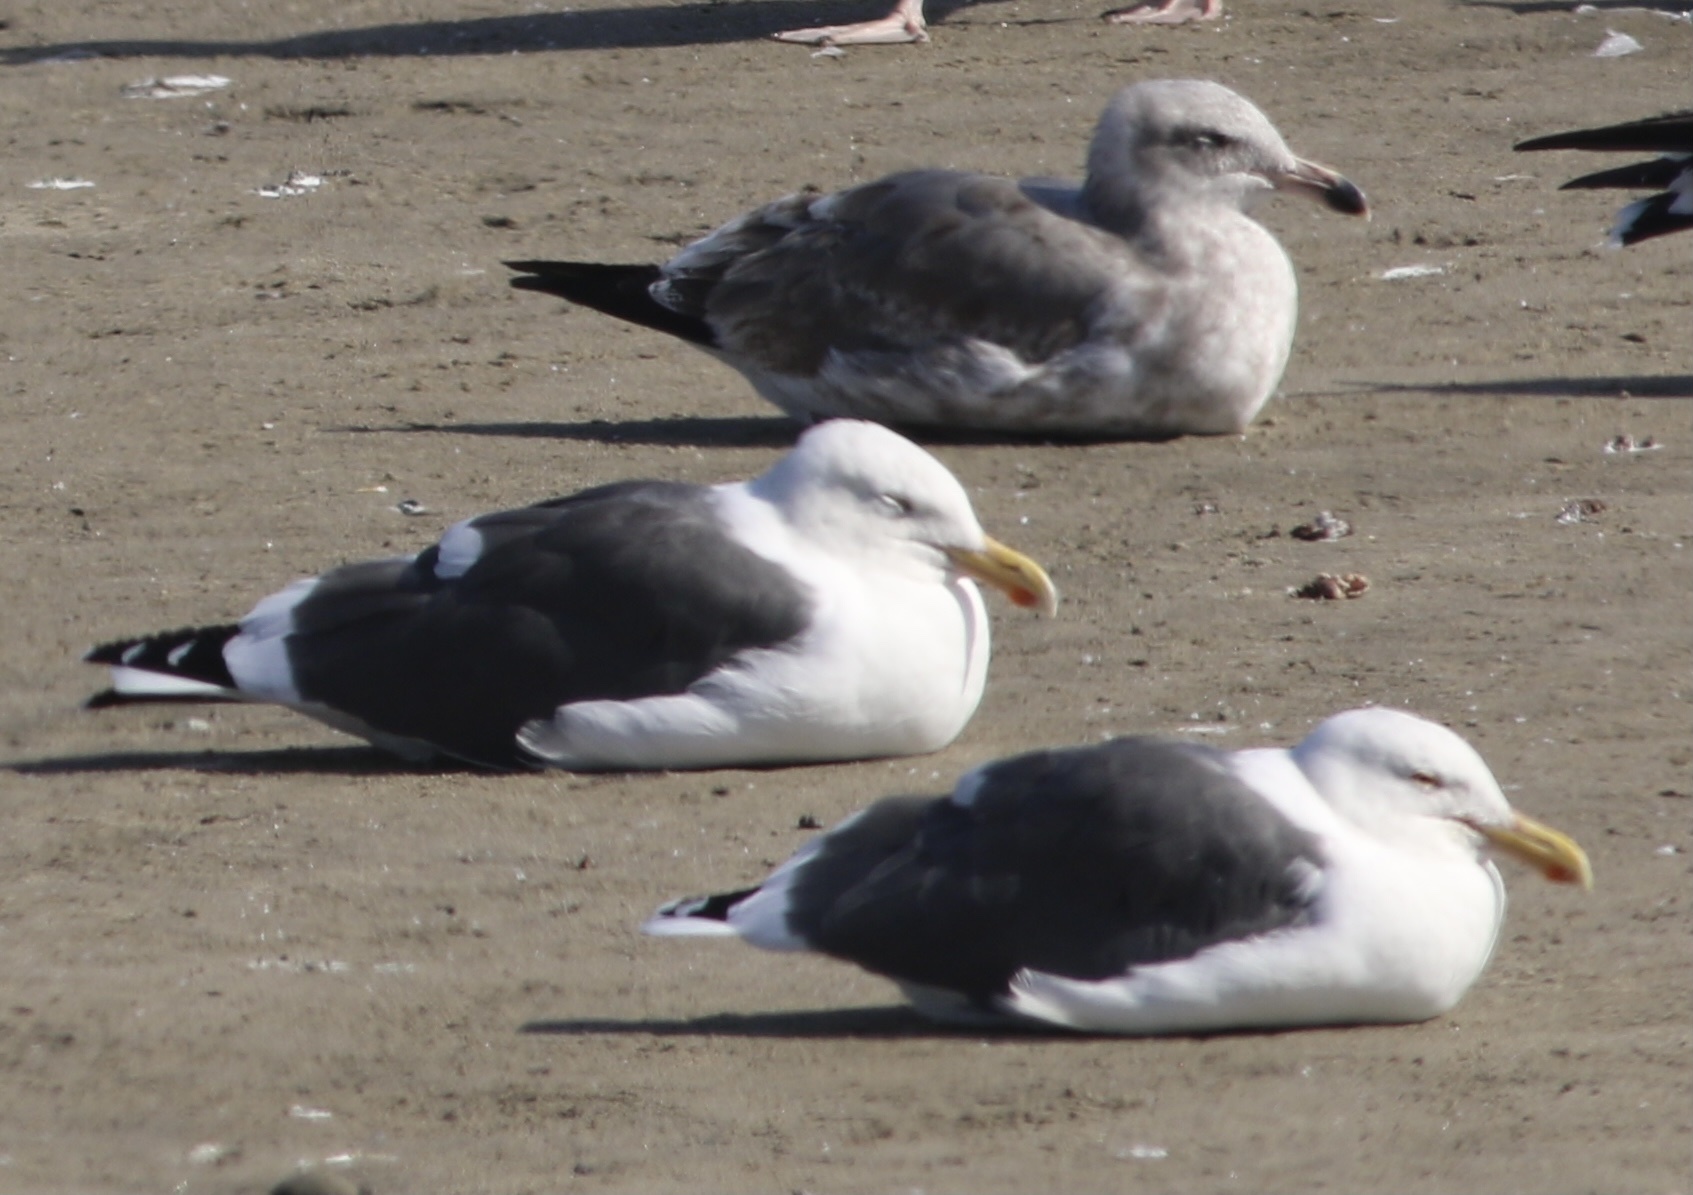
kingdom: Animalia
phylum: Chordata
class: Aves
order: Charadriiformes
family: Laridae
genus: Larus
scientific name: Larus occidentalis
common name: Western gull
